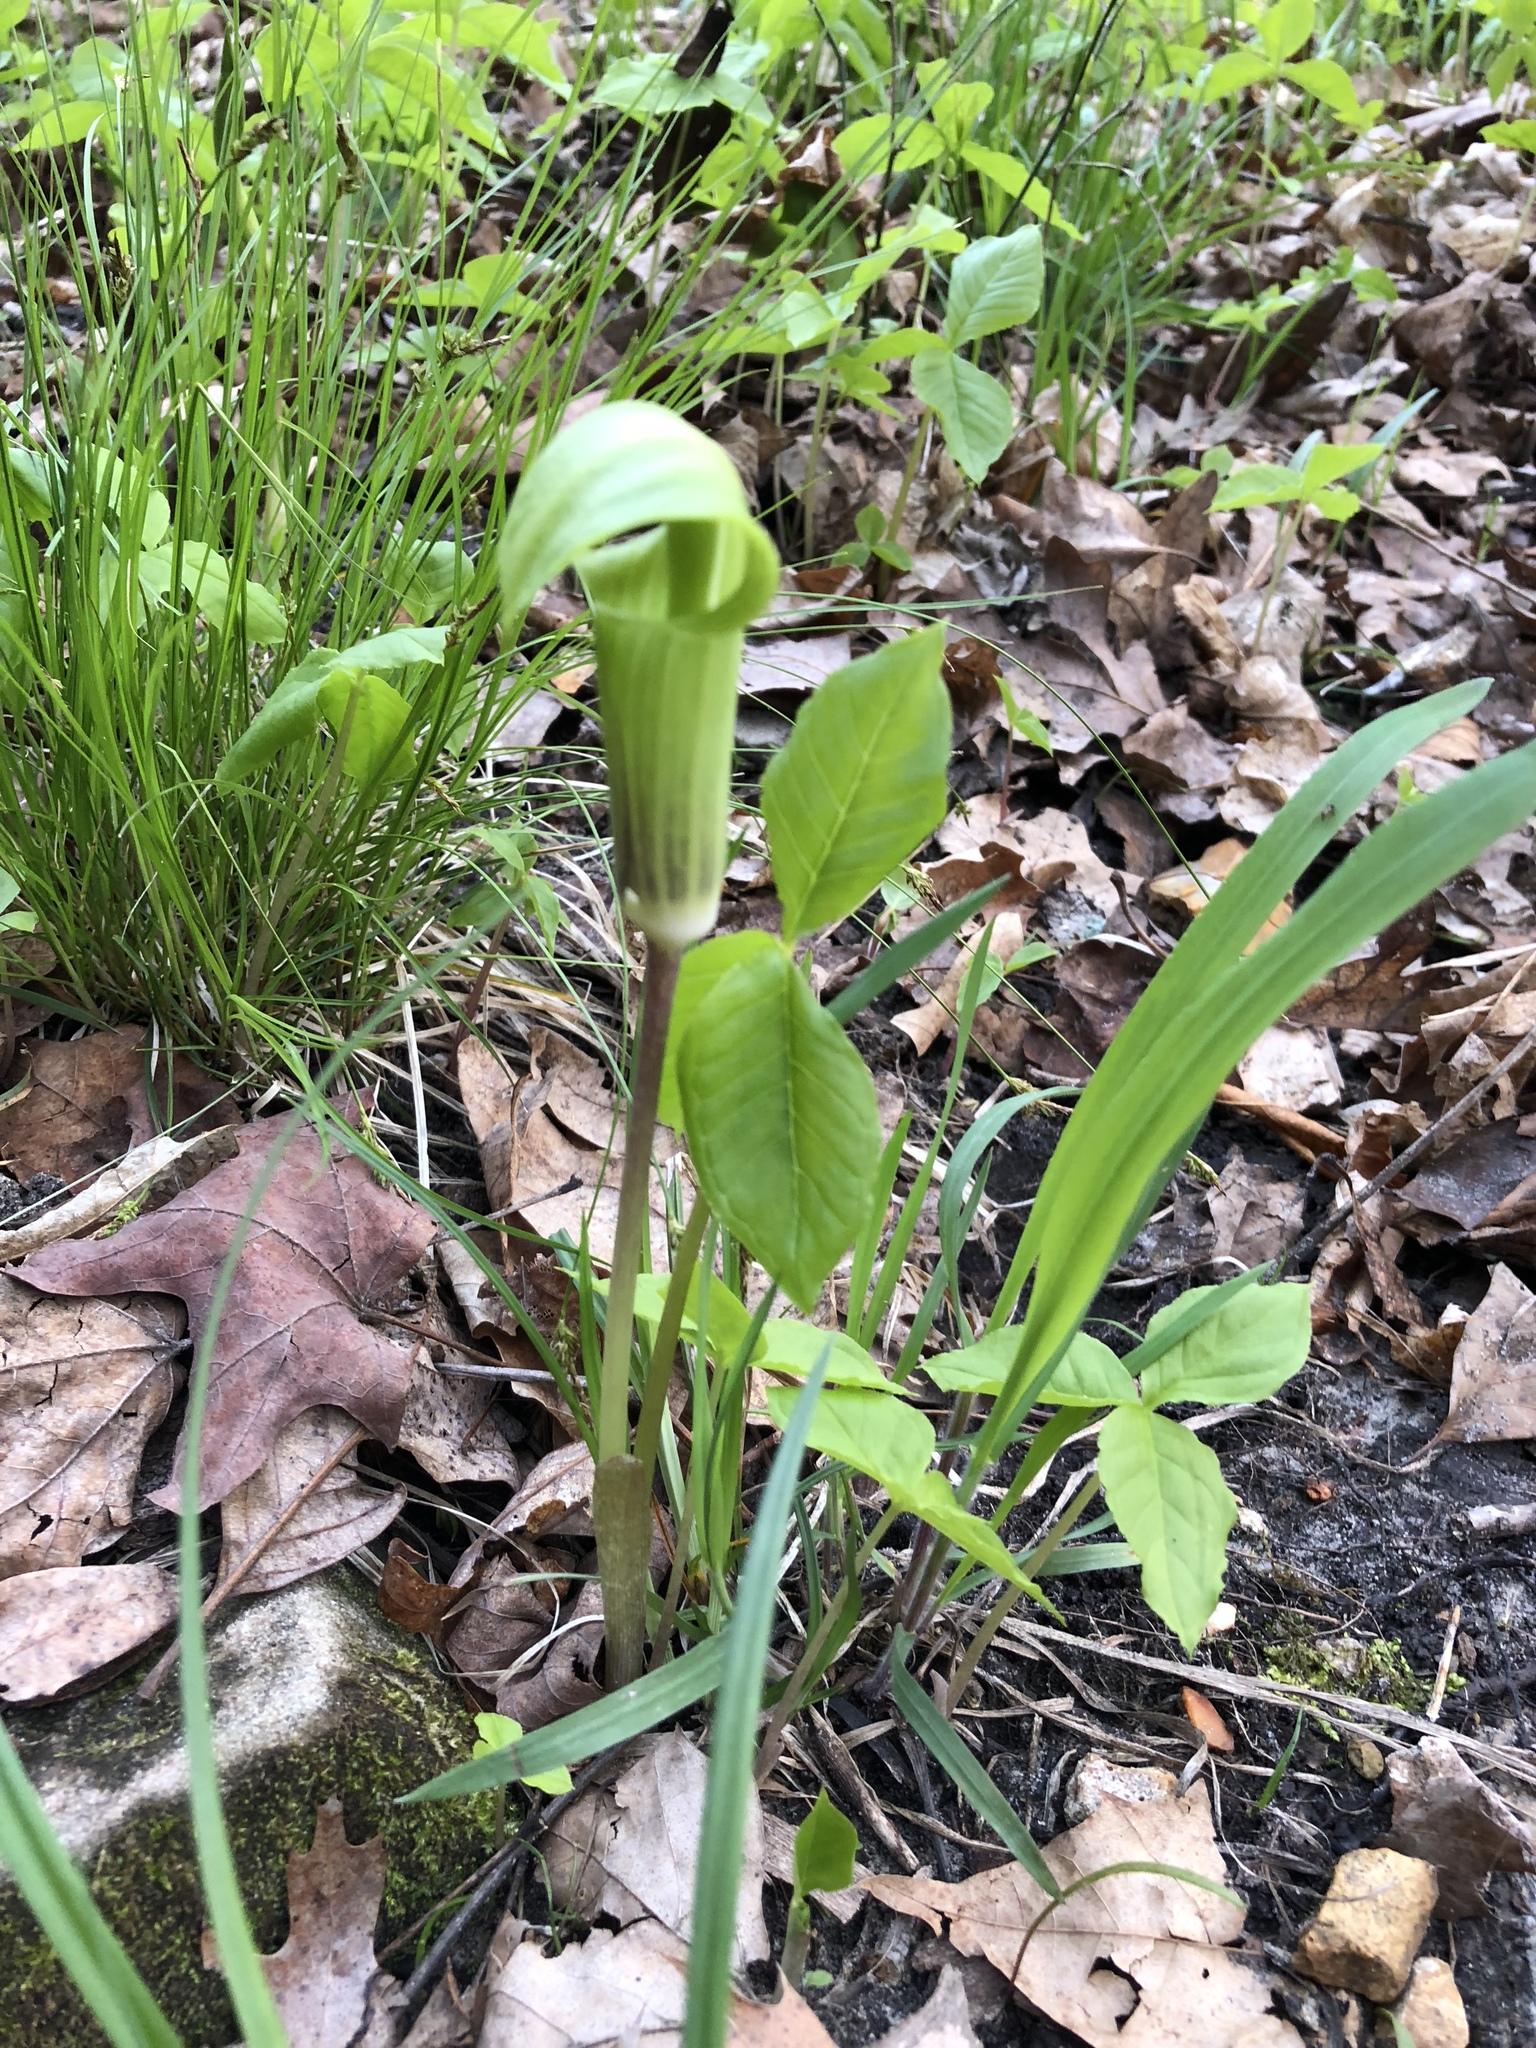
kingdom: Plantae
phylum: Tracheophyta
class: Liliopsida
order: Alismatales
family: Araceae
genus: Arisaema
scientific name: Arisaema triphyllum
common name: Jack-in-the-pulpit
